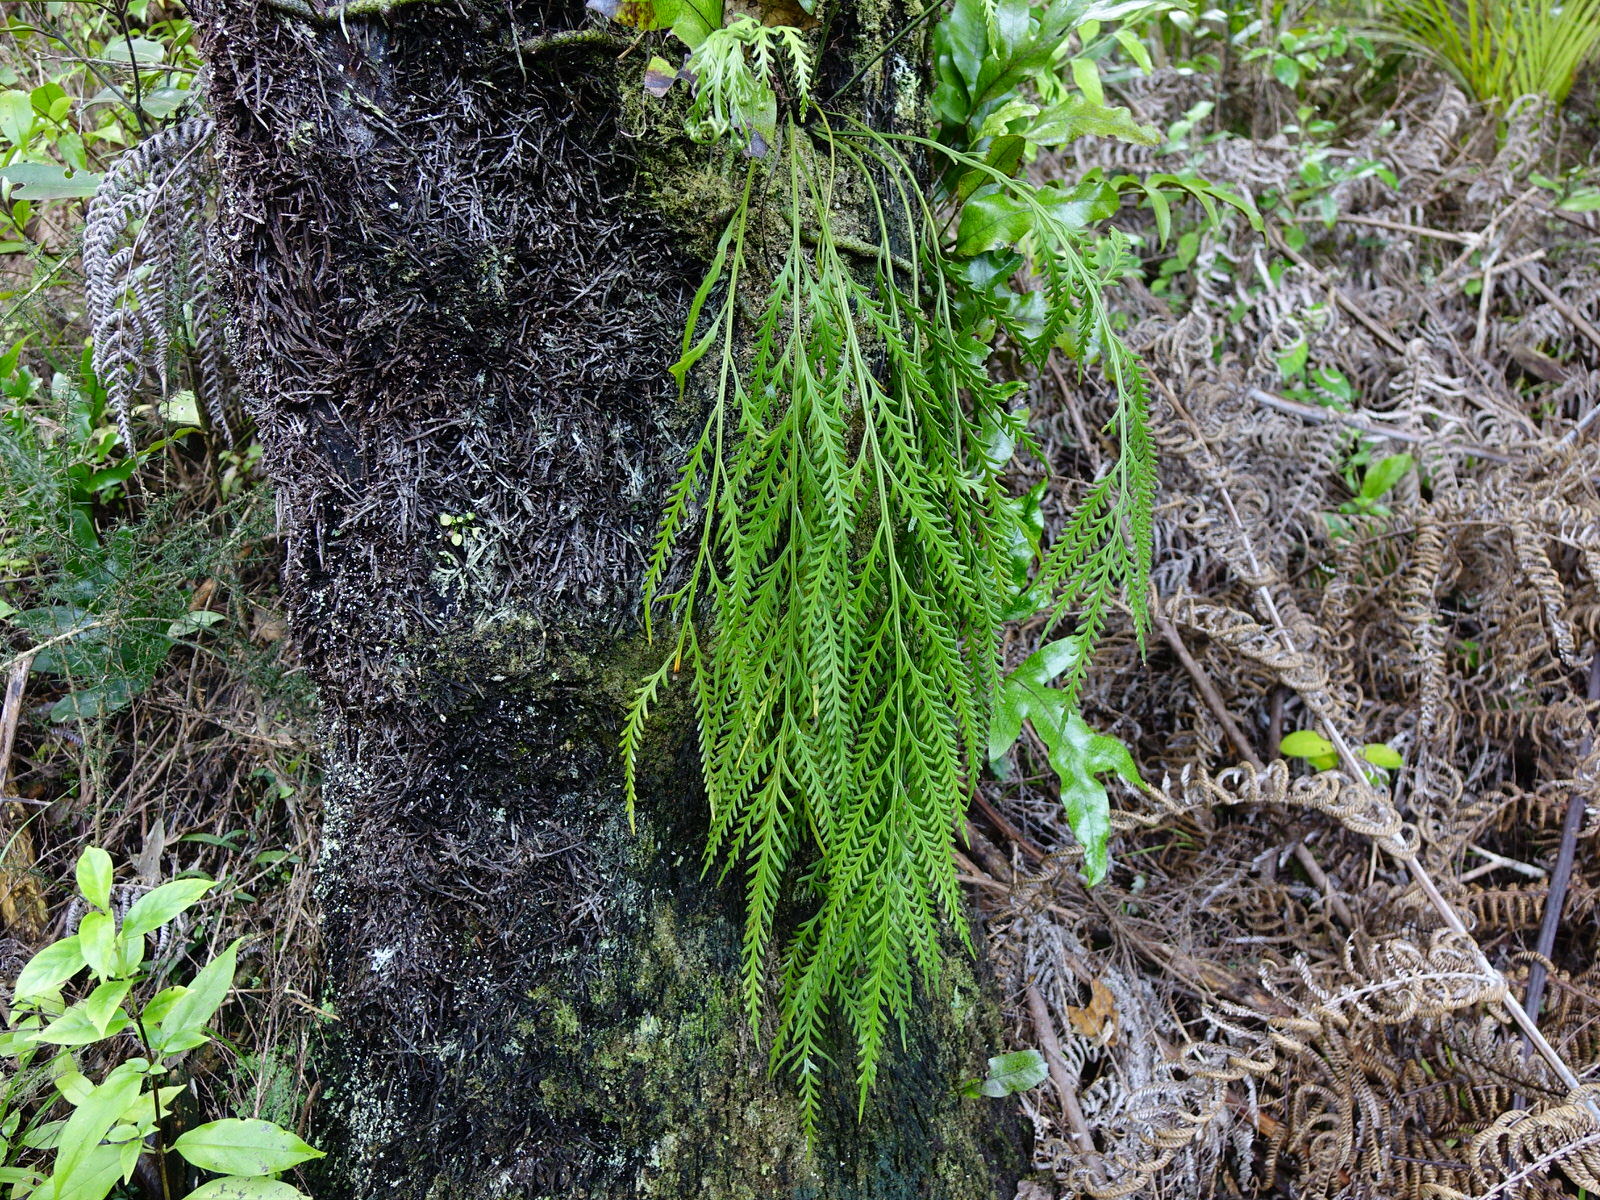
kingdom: Plantae
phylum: Tracheophyta
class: Polypodiopsida
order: Polypodiales
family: Aspleniaceae
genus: Asplenium
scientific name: Asplenium flaccidum
